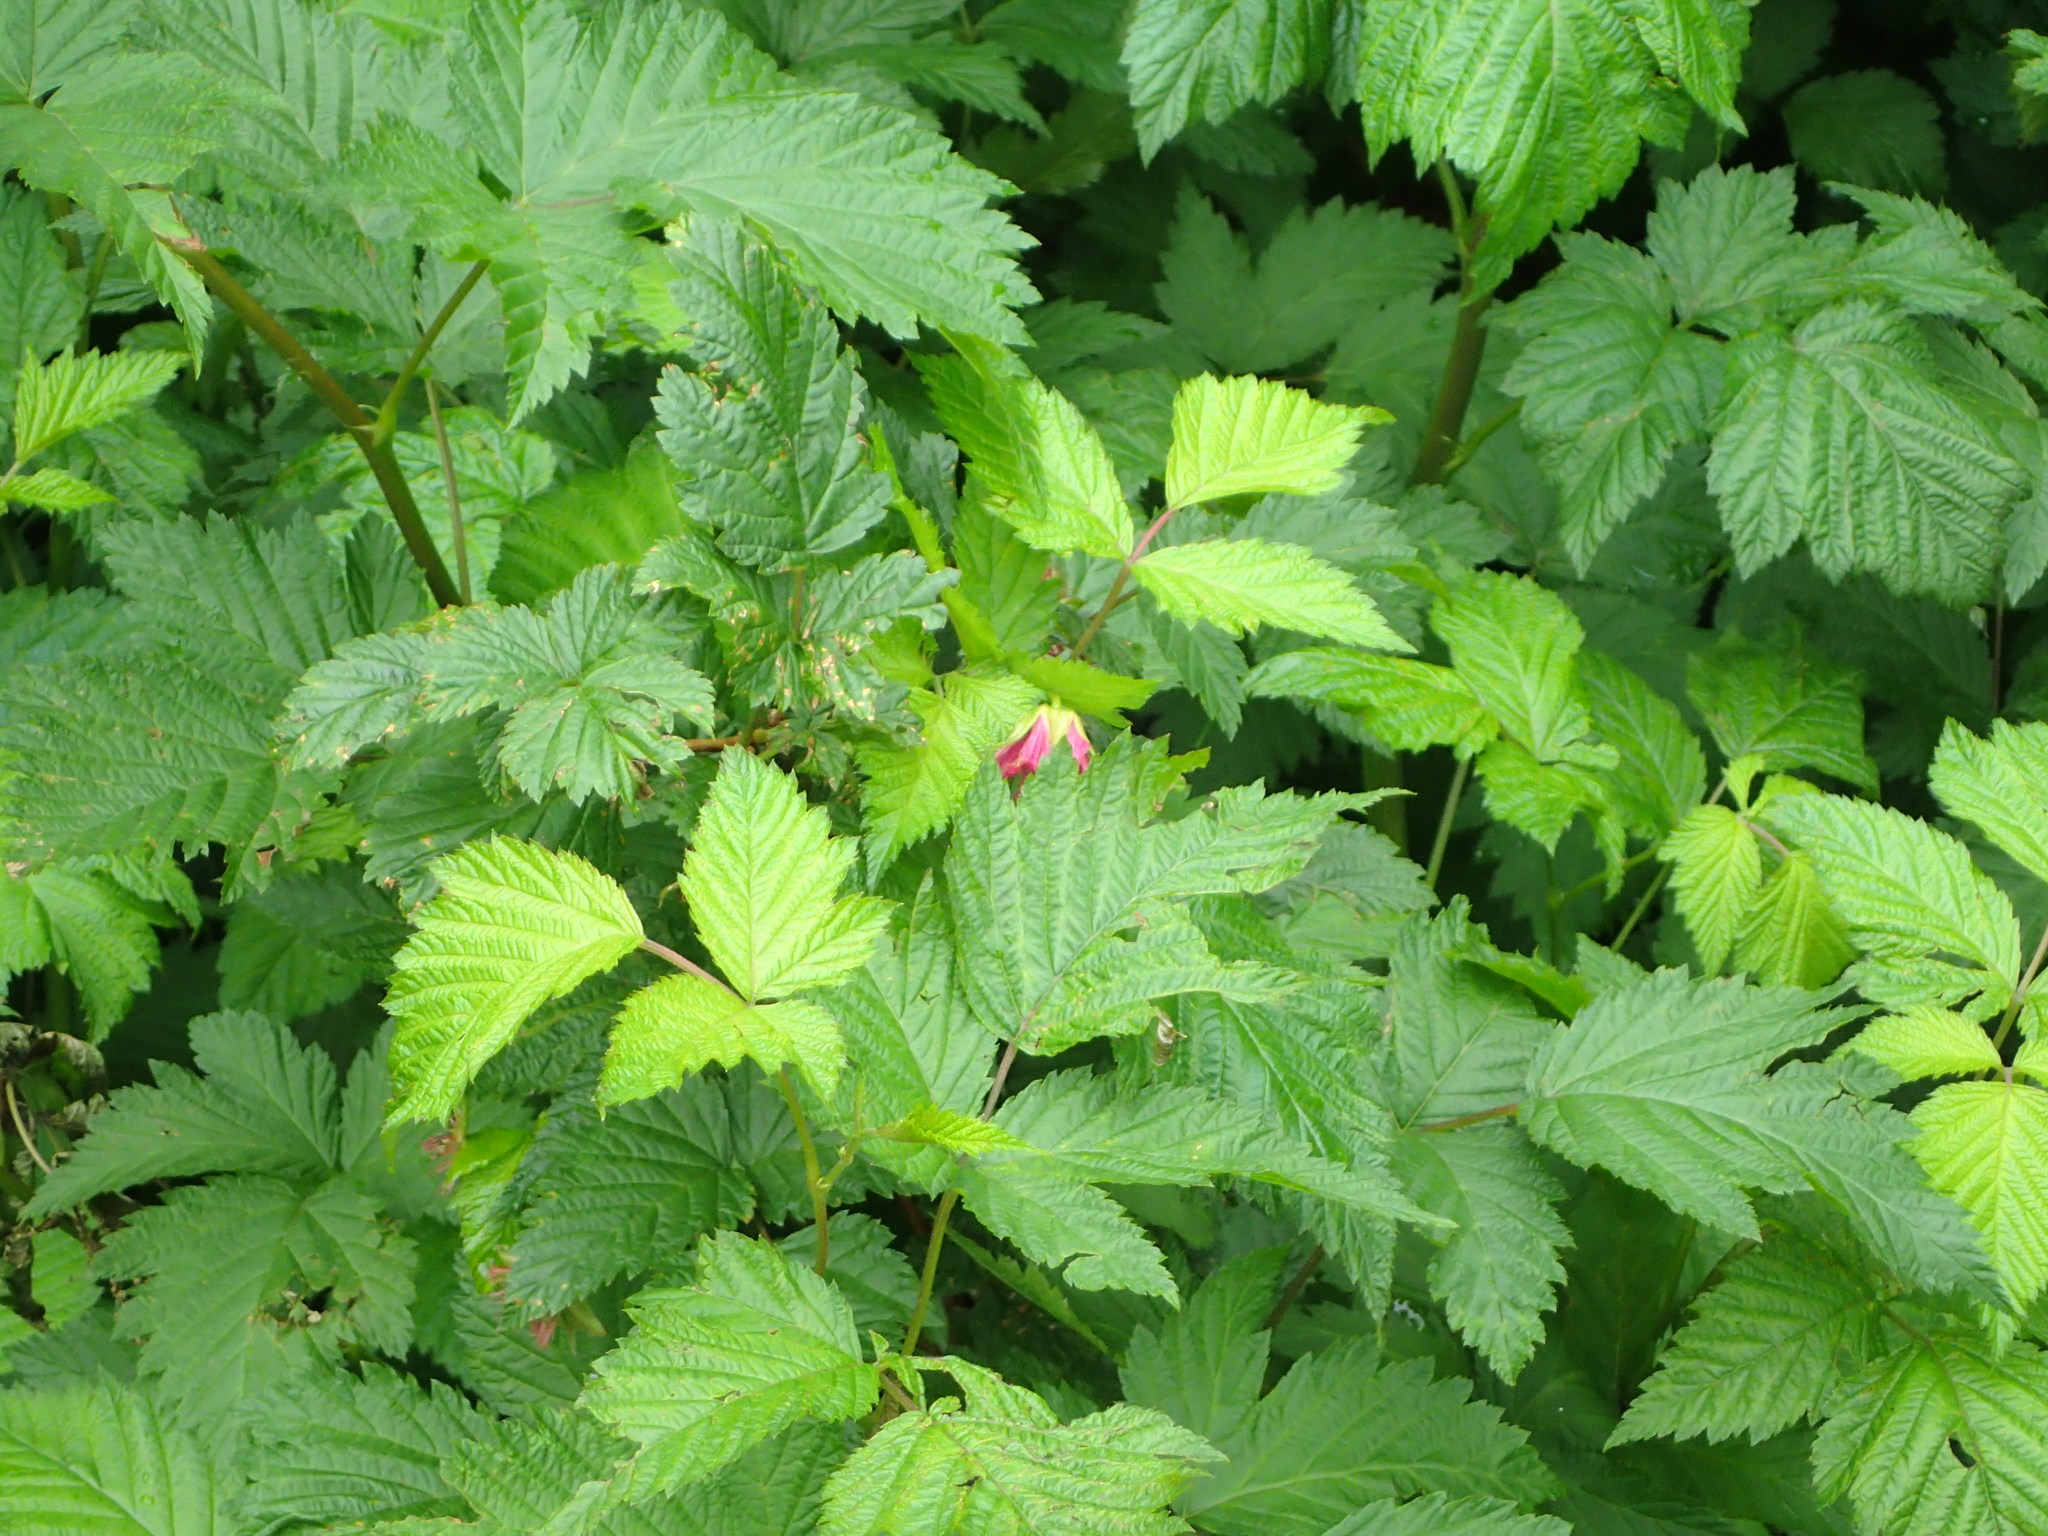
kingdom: Plantae
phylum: Tracheophyta
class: Magnoliopsida
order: Rosales
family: Rosaceae
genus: Rubus
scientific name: Rubus spectabilis
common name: Salmonberry
